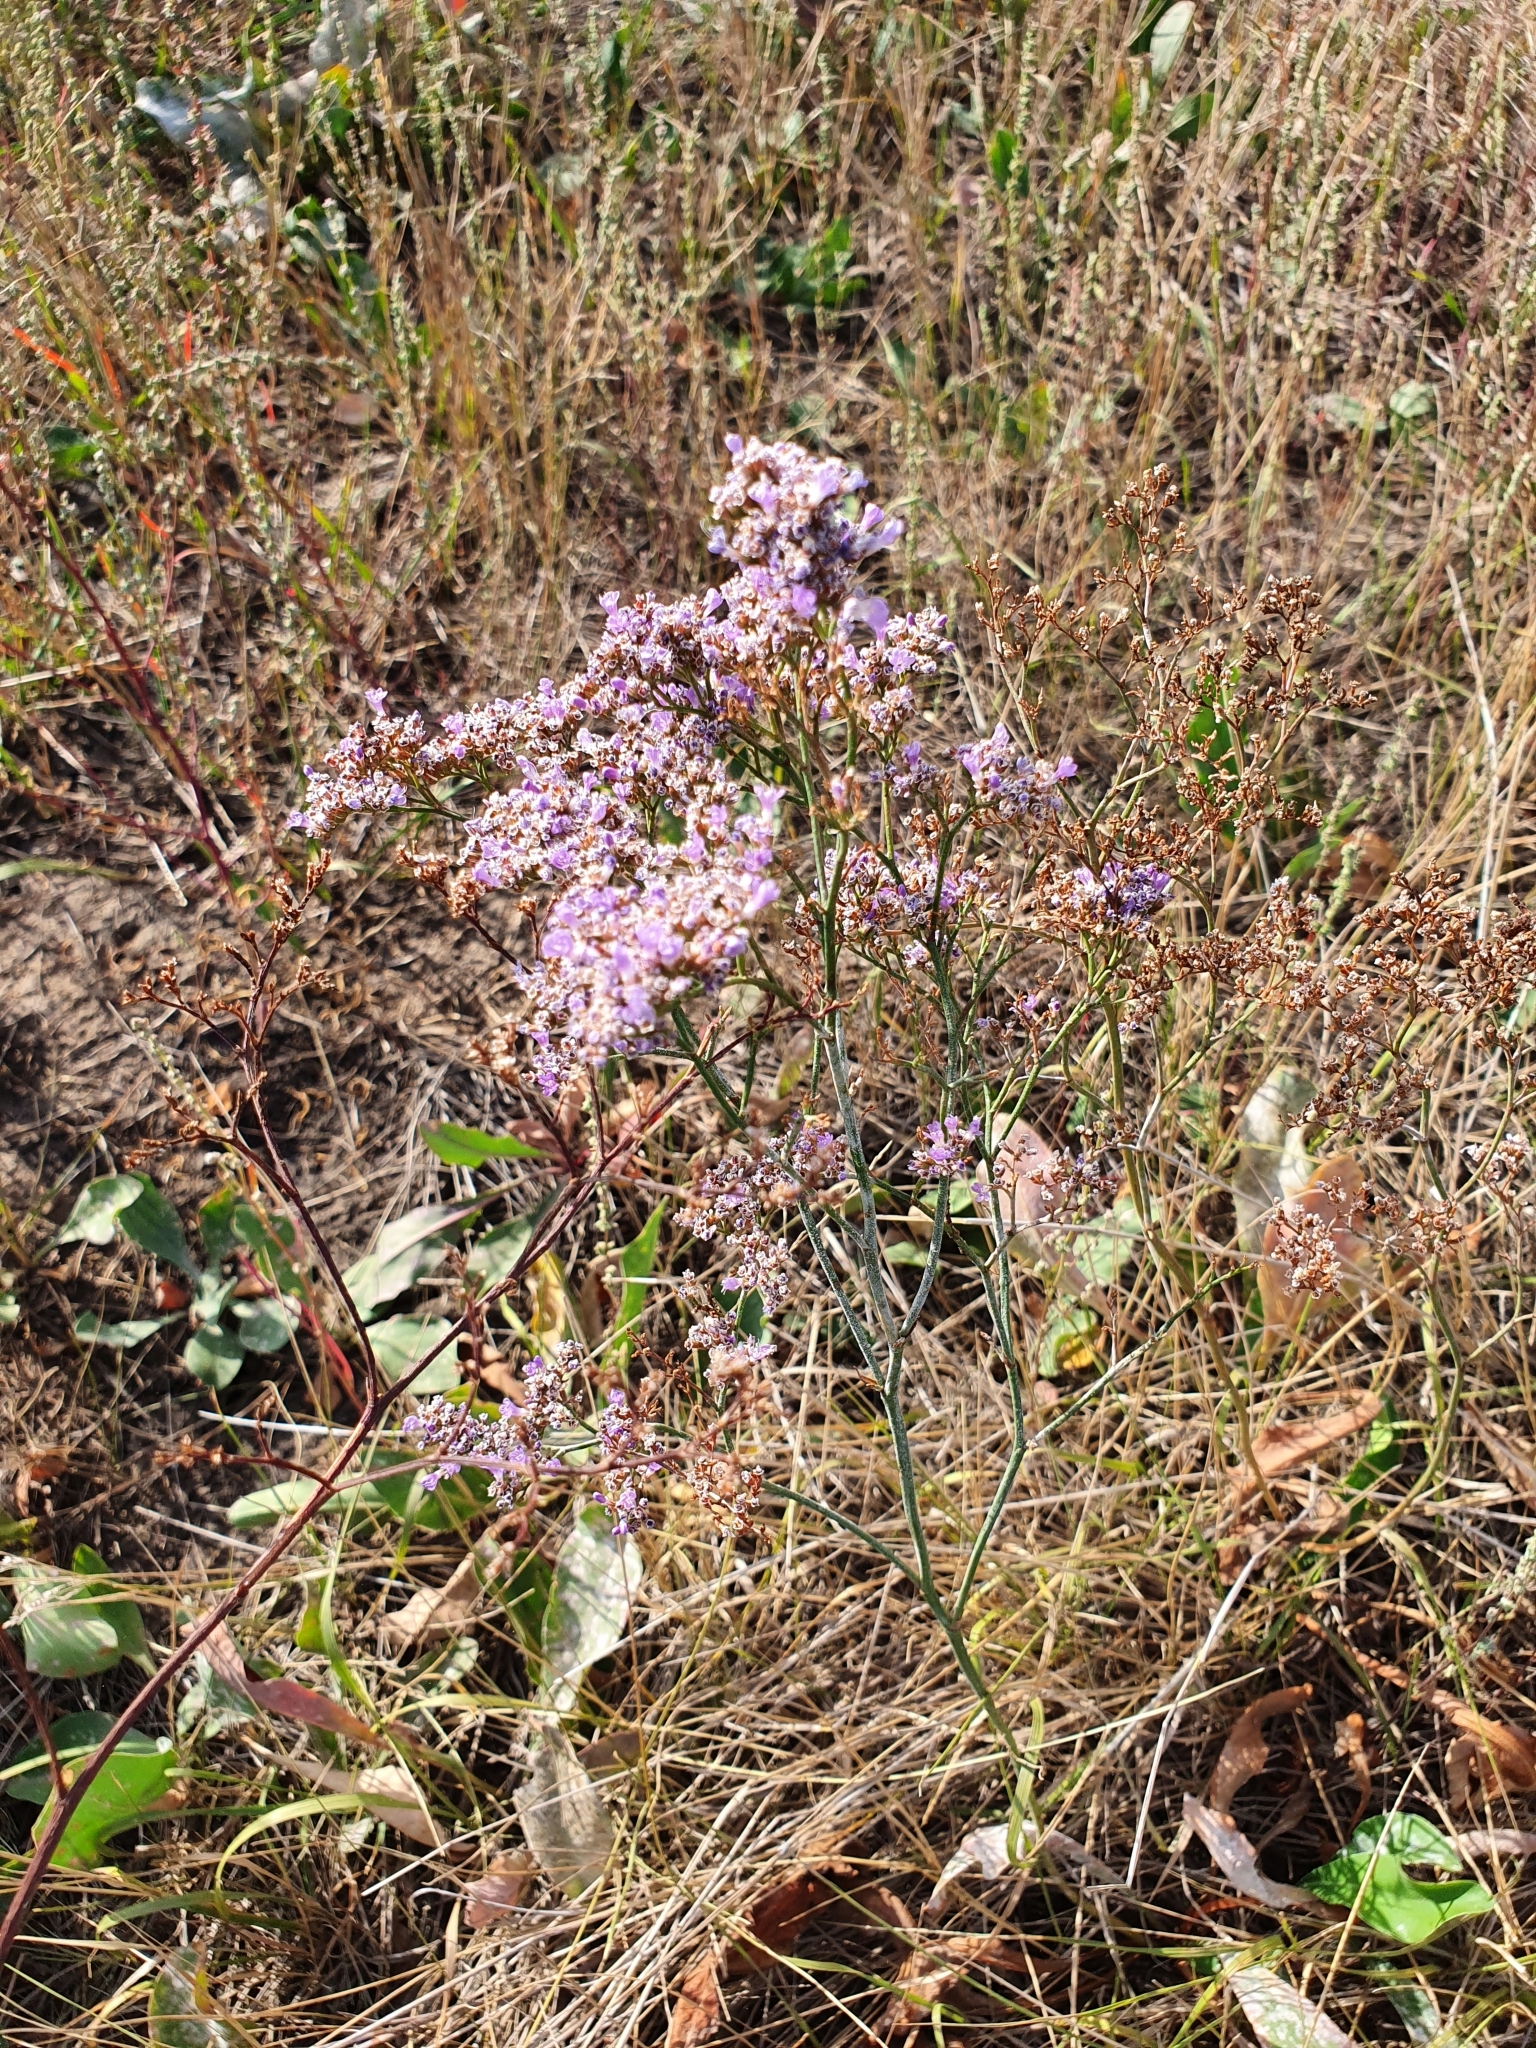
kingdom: Plantae
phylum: Tracheophyta
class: Magnoliopsida
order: Caryophyllales
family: Plumbaginaceae
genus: Limonium
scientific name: Limonium gmelini
